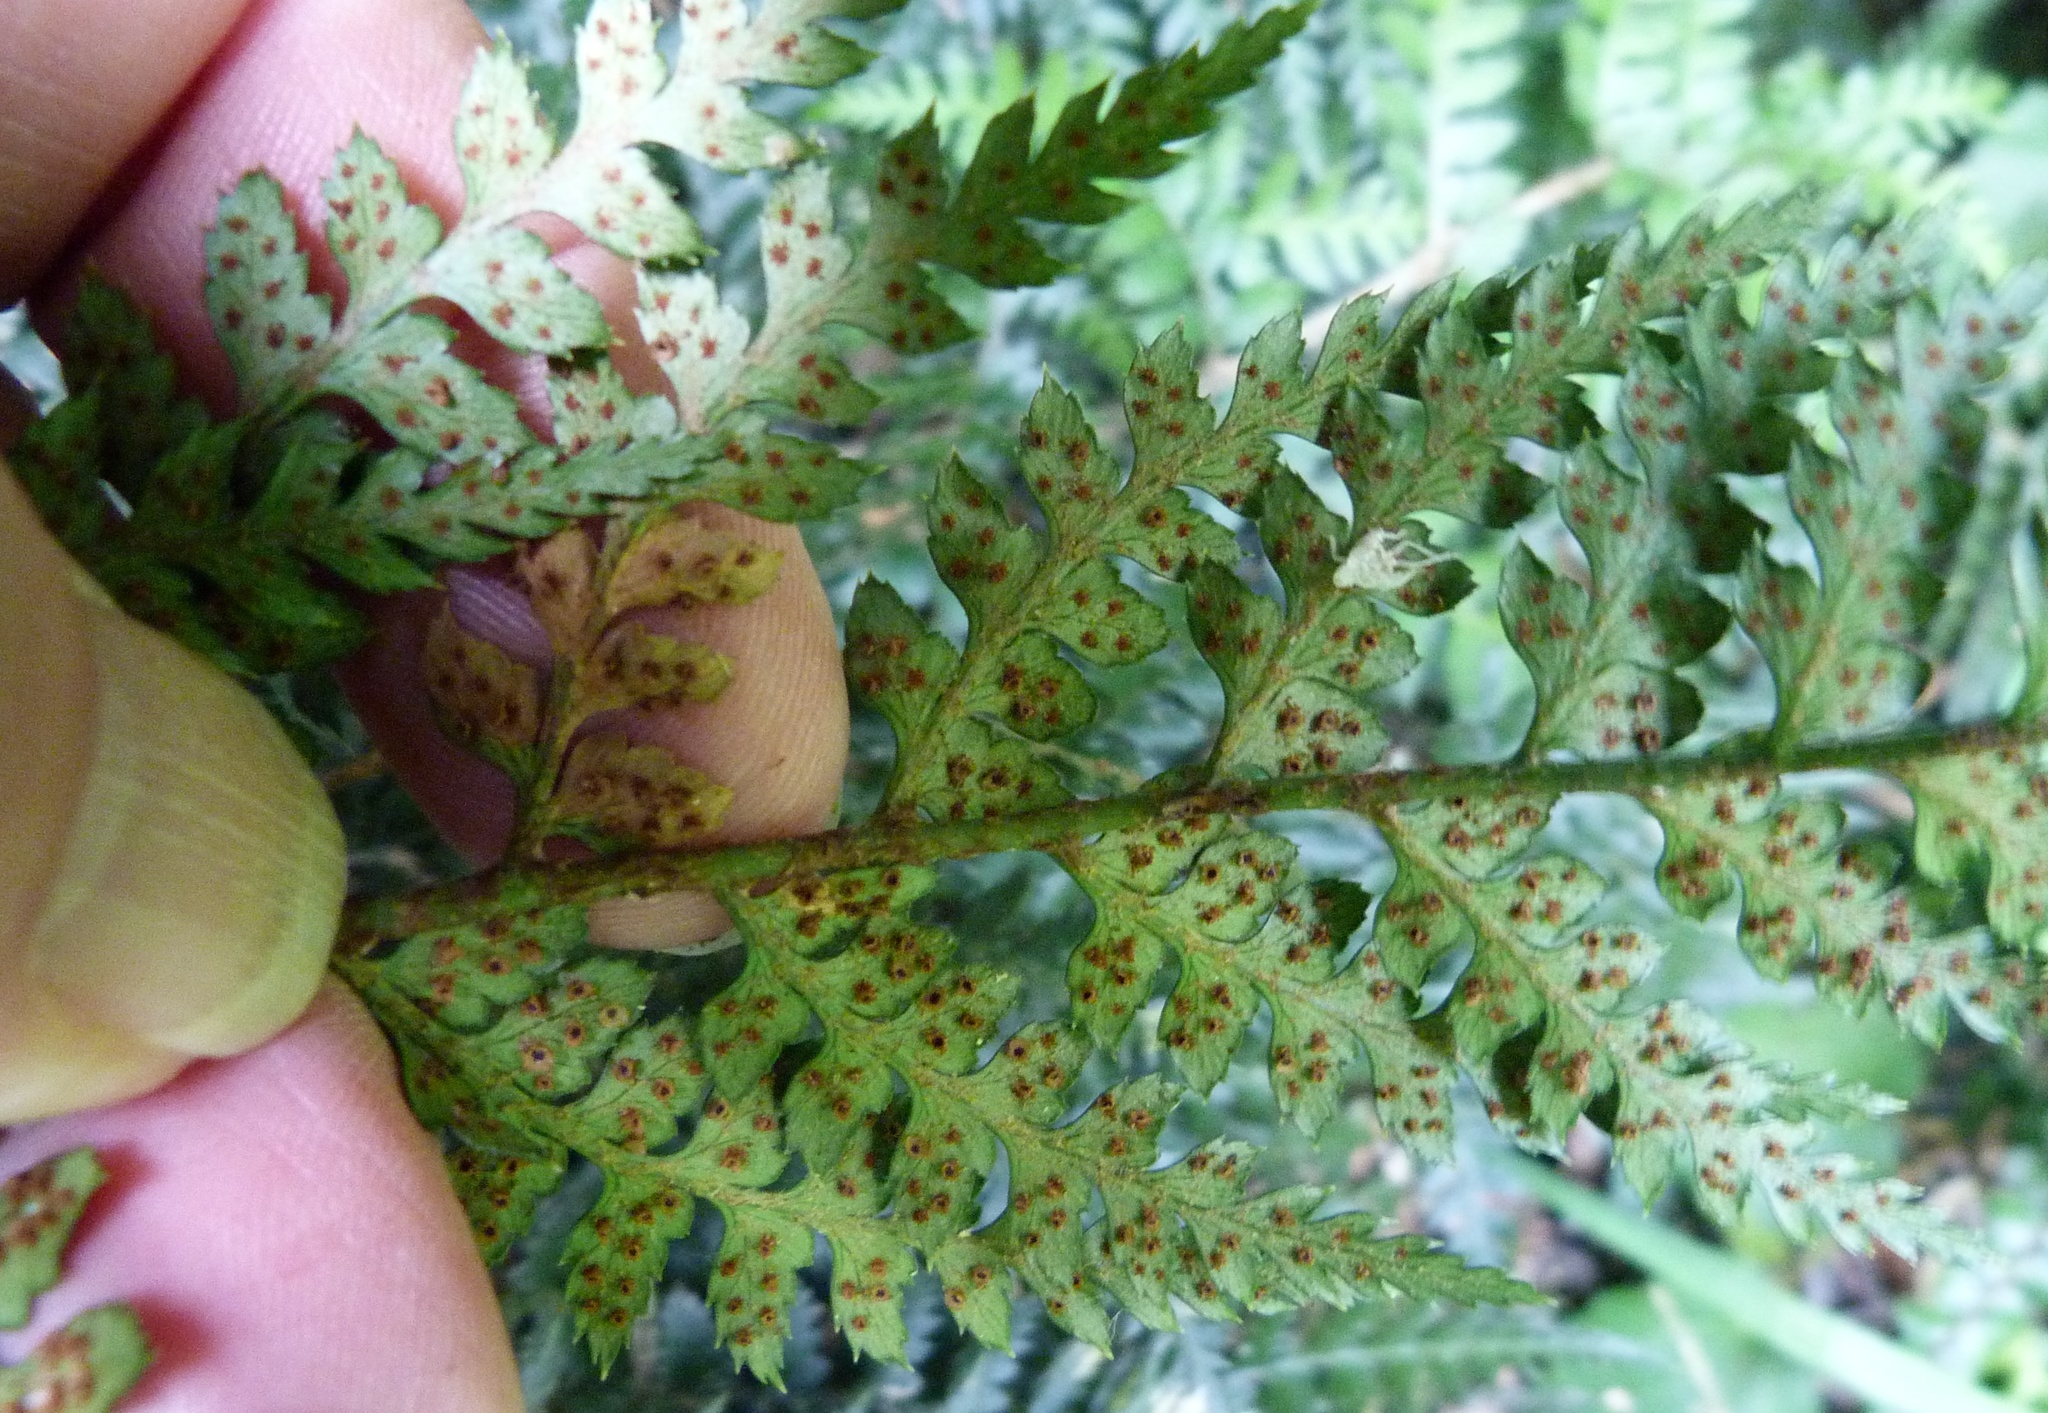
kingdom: Plantae
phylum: Tracheophyta
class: Polypodiopsida
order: Polypodiales
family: Dryopteridaceae
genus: Polystichum
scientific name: Polystichum oculatum
